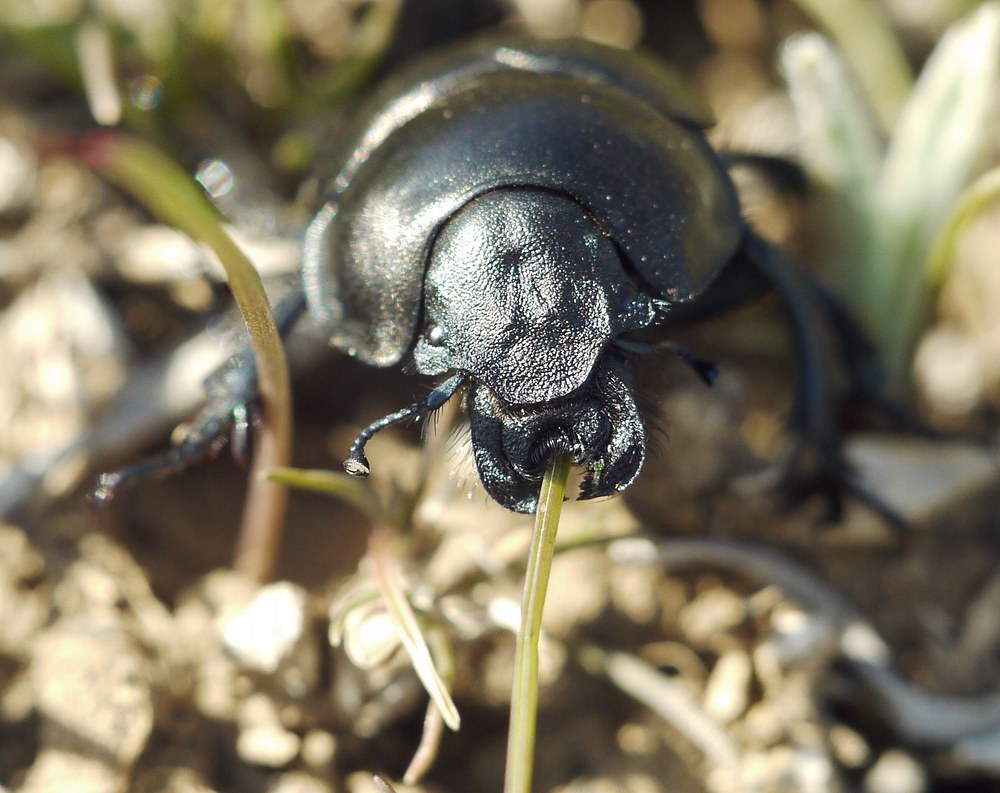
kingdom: Animalia
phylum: Arthropoda
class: Insecta
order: Coleoptera
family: Geotrupidae
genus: Lethrus
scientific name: Lethrus apterus
